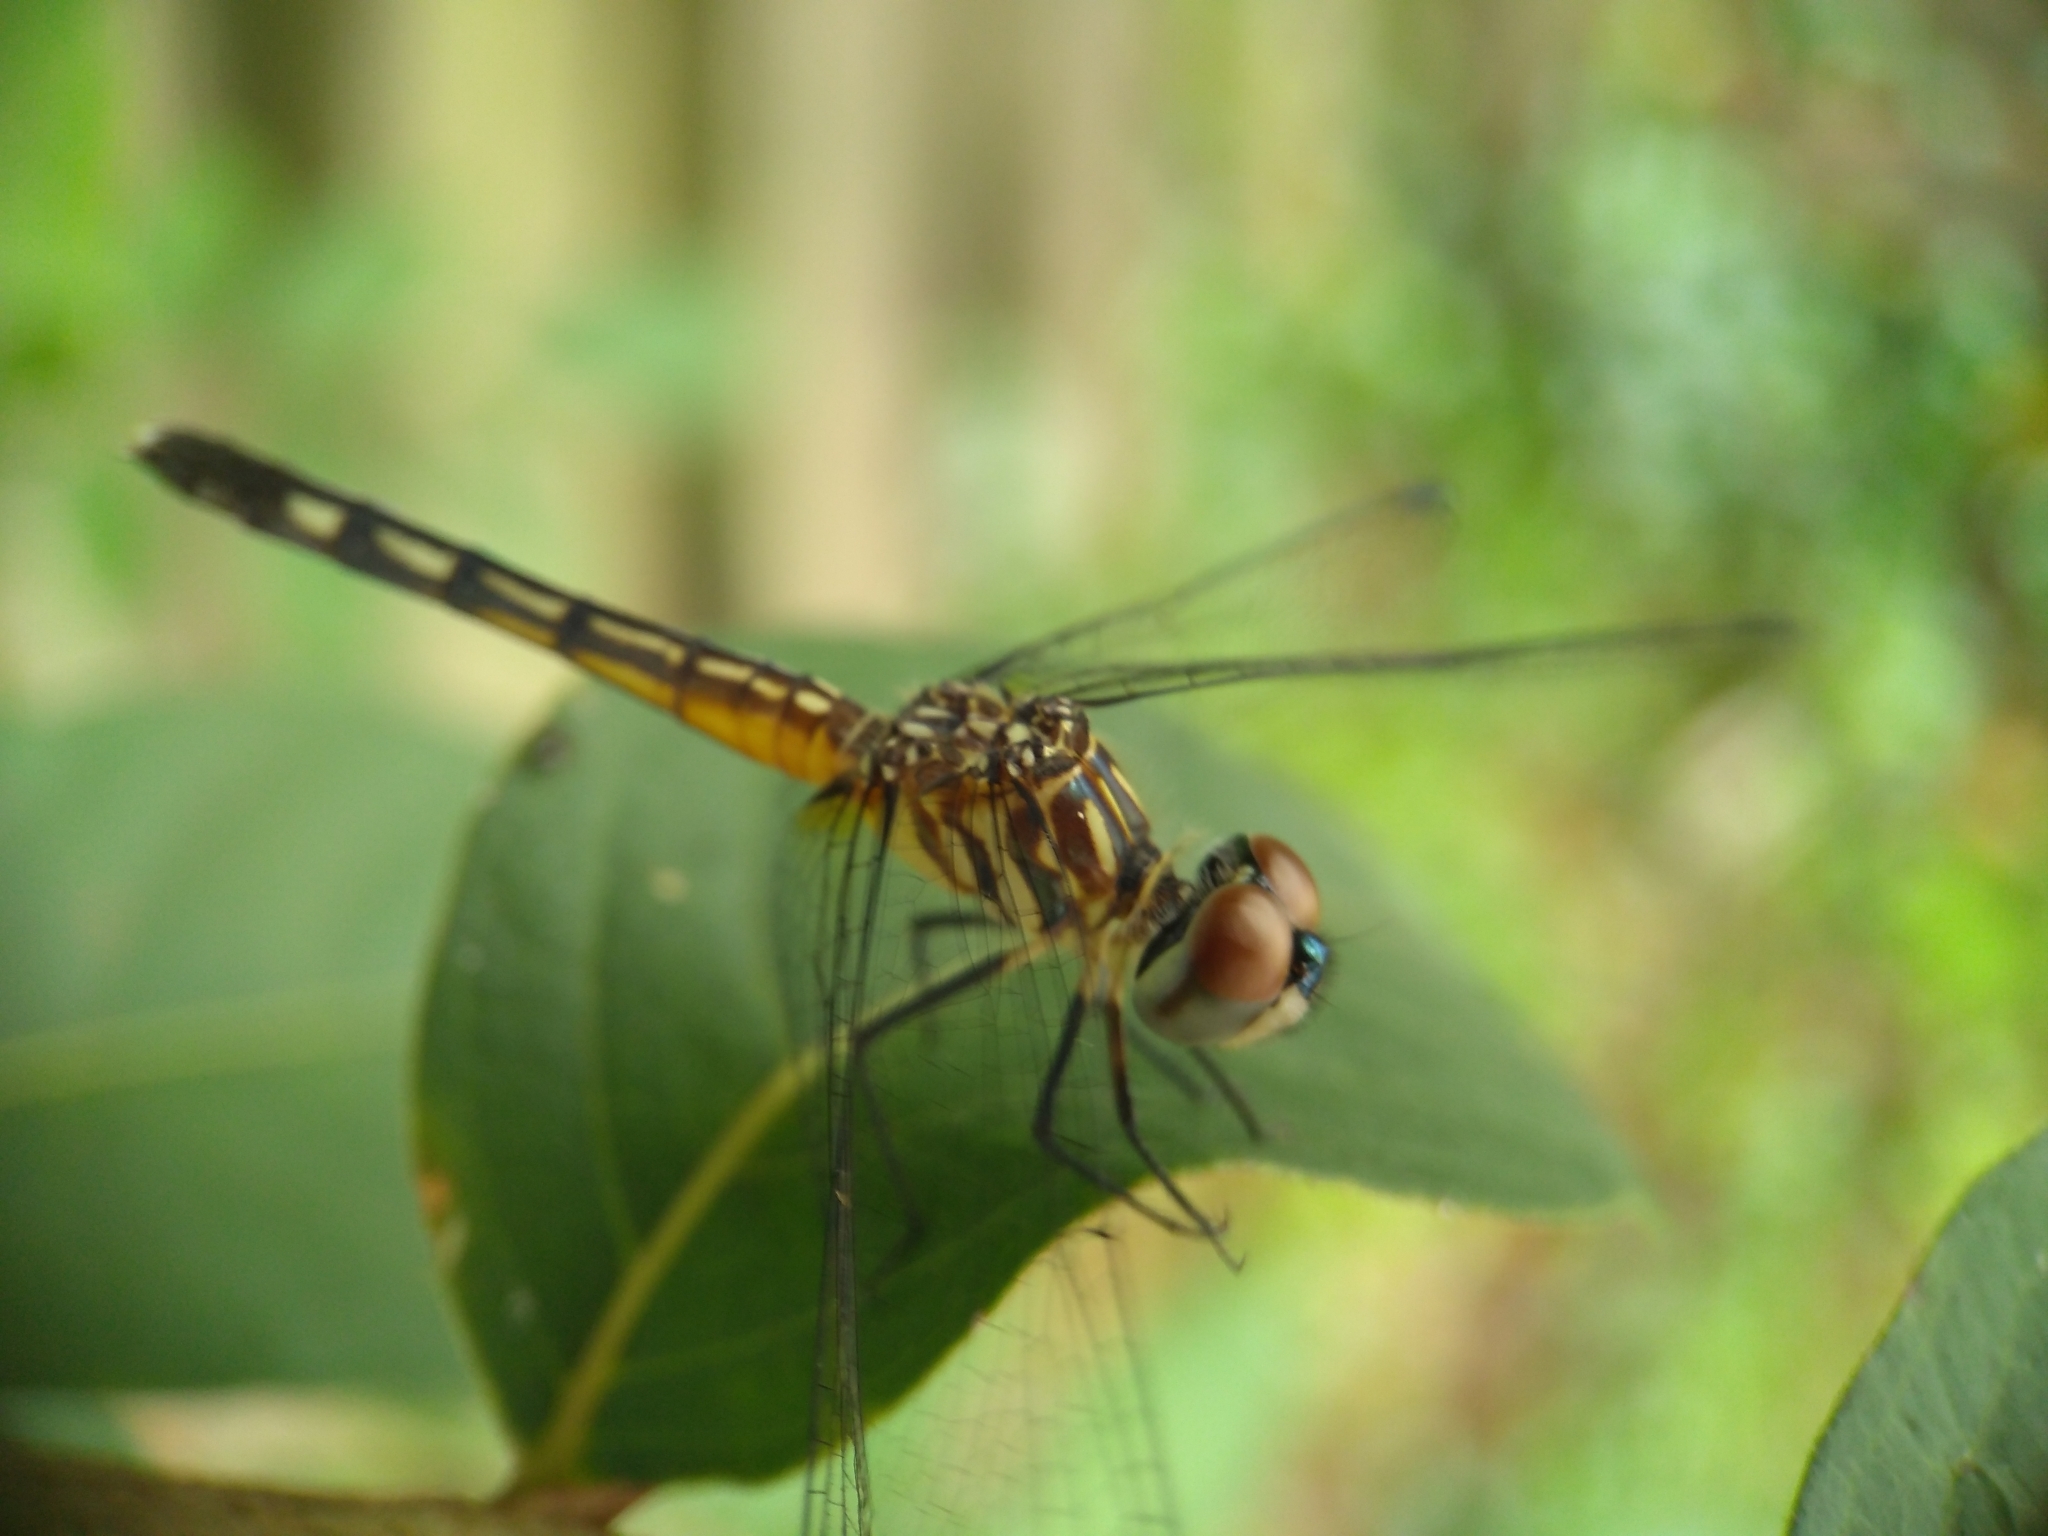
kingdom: Animalia
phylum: Arthropoda
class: Insecta
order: Odonata
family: Libellulidae
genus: Pachydiplax
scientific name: Pachydiplax longipennis
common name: Blue dasher
